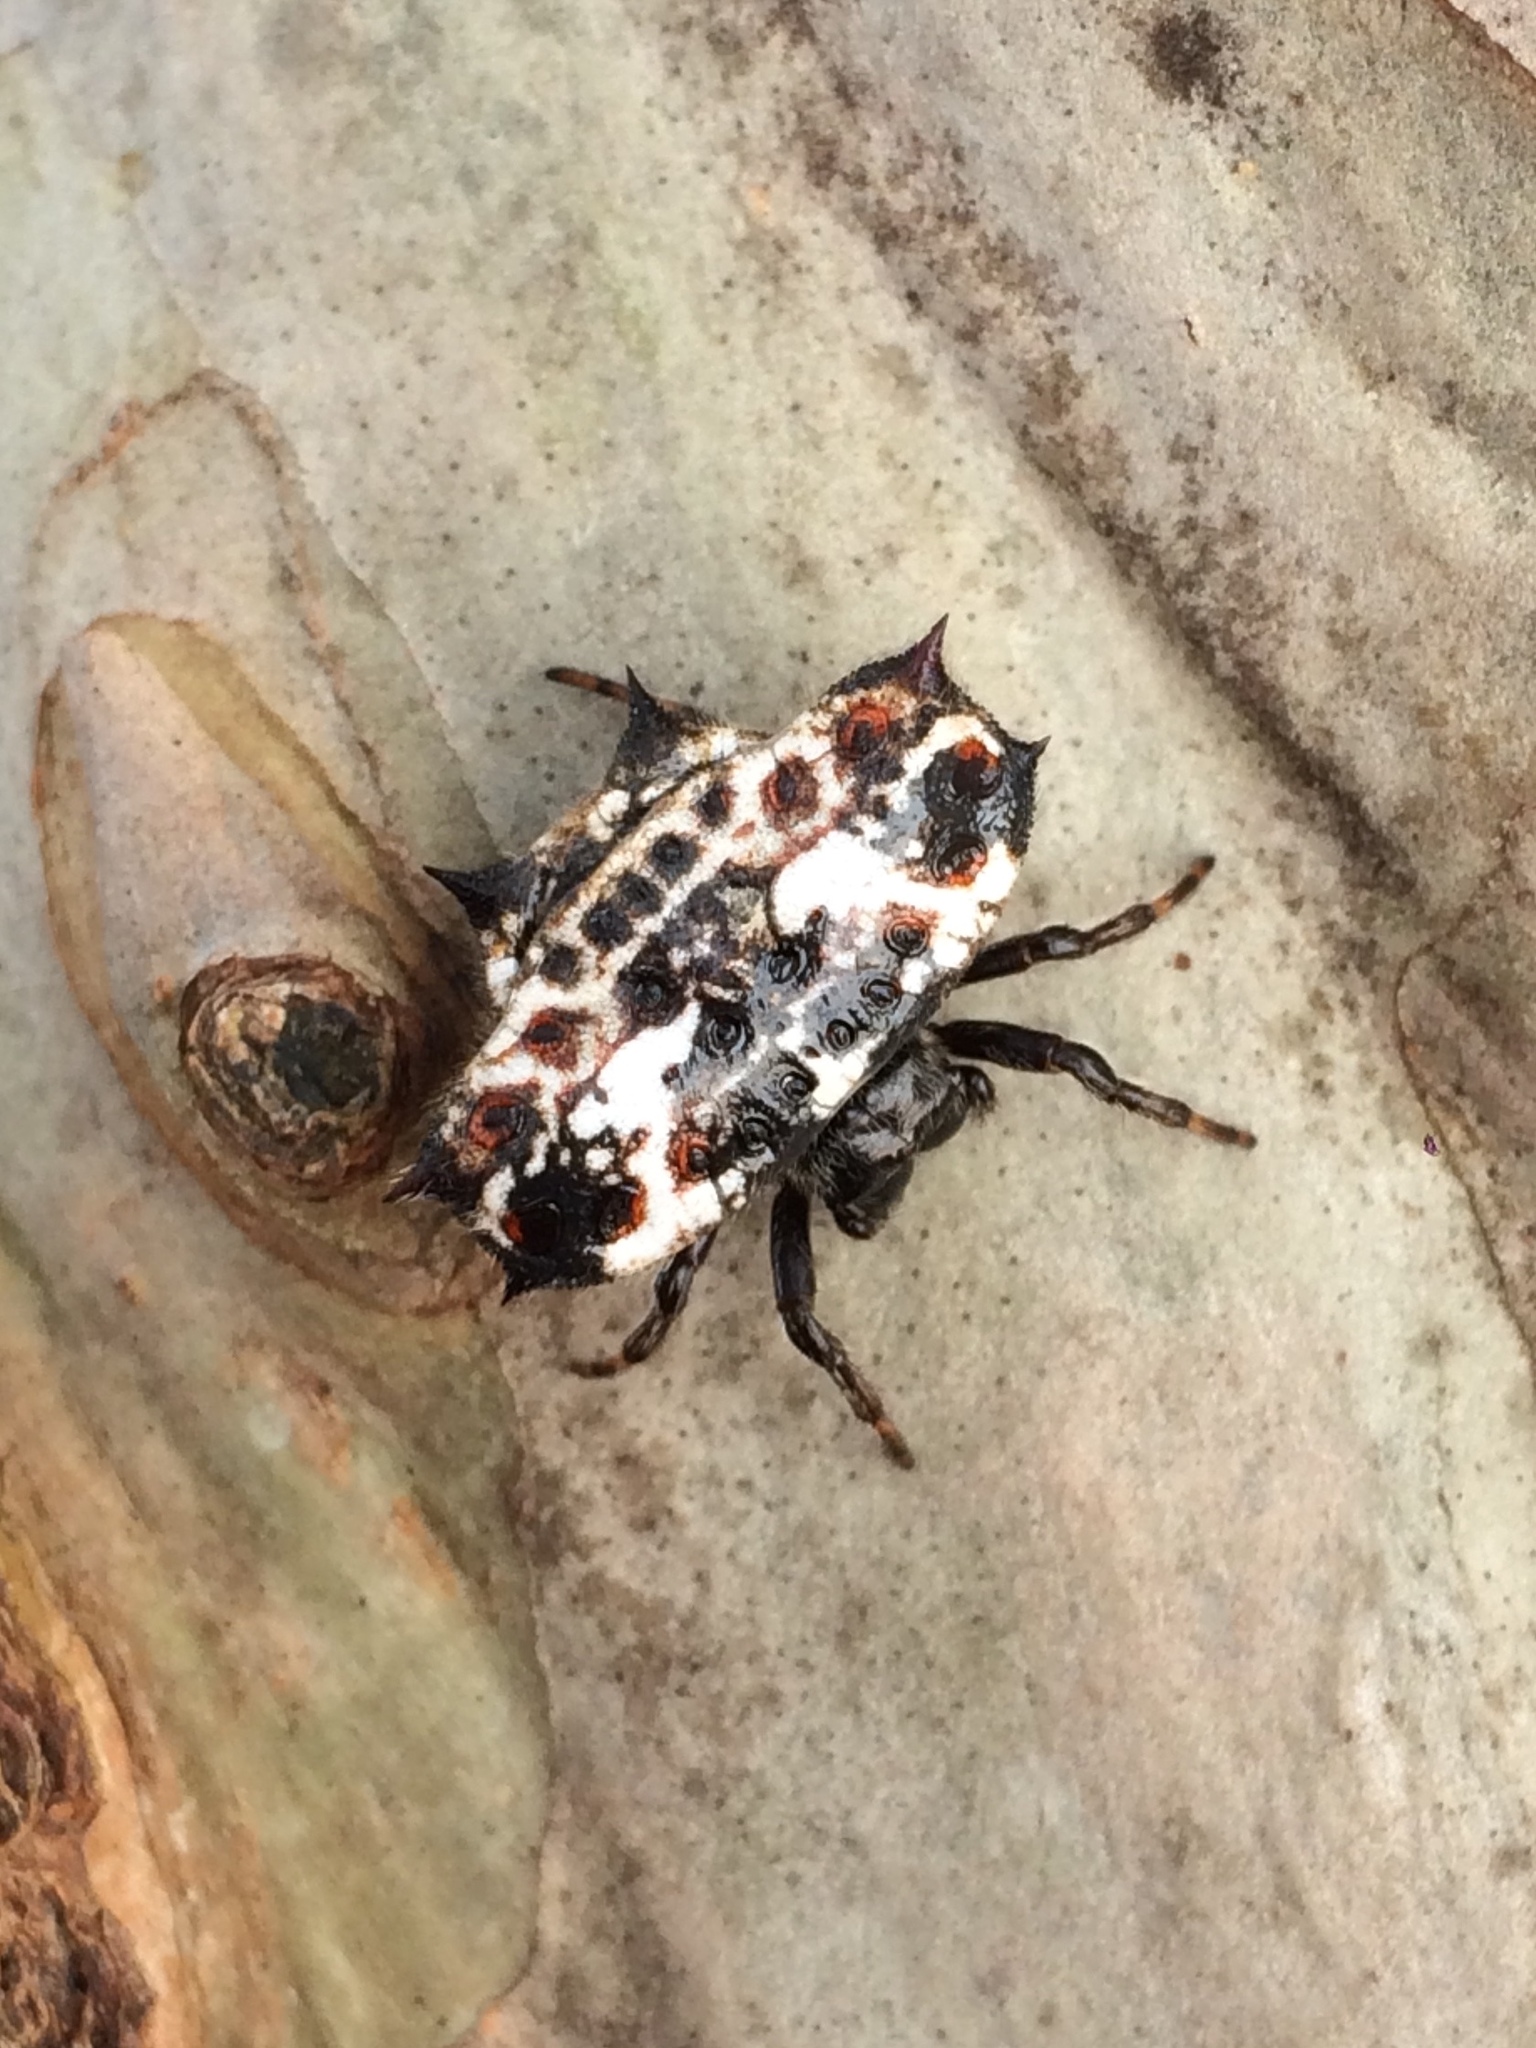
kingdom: Animalia
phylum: Arthropoda
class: Arachnida
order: Araneae
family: Araneidae
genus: Gasteracantha
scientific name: Gasteracantha cancriformis
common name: Orb weavers
